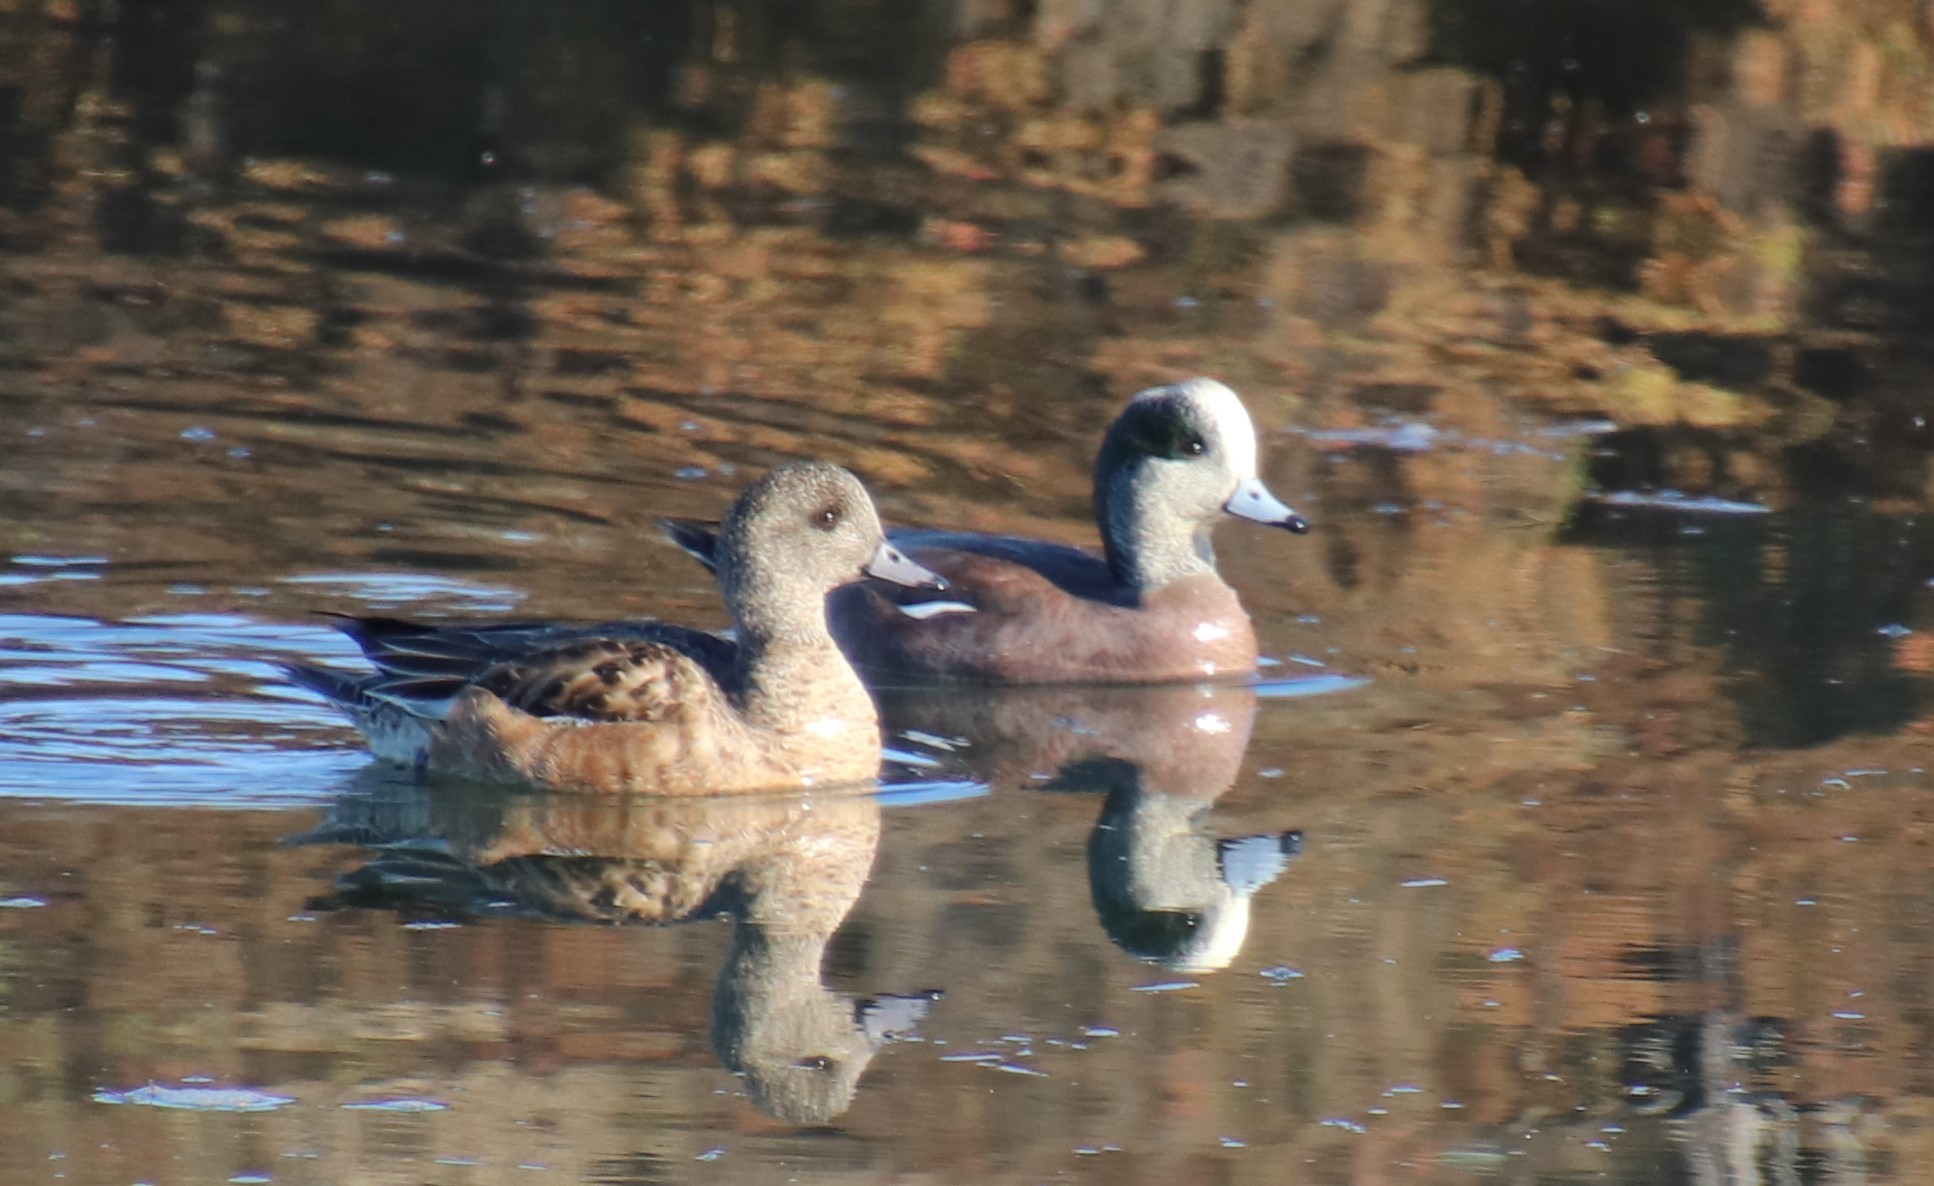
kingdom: Animalia
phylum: Chordata
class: Aves
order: Anseriformes
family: Anatidae
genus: Mareca
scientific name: Mareca americana
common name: American wigeon
